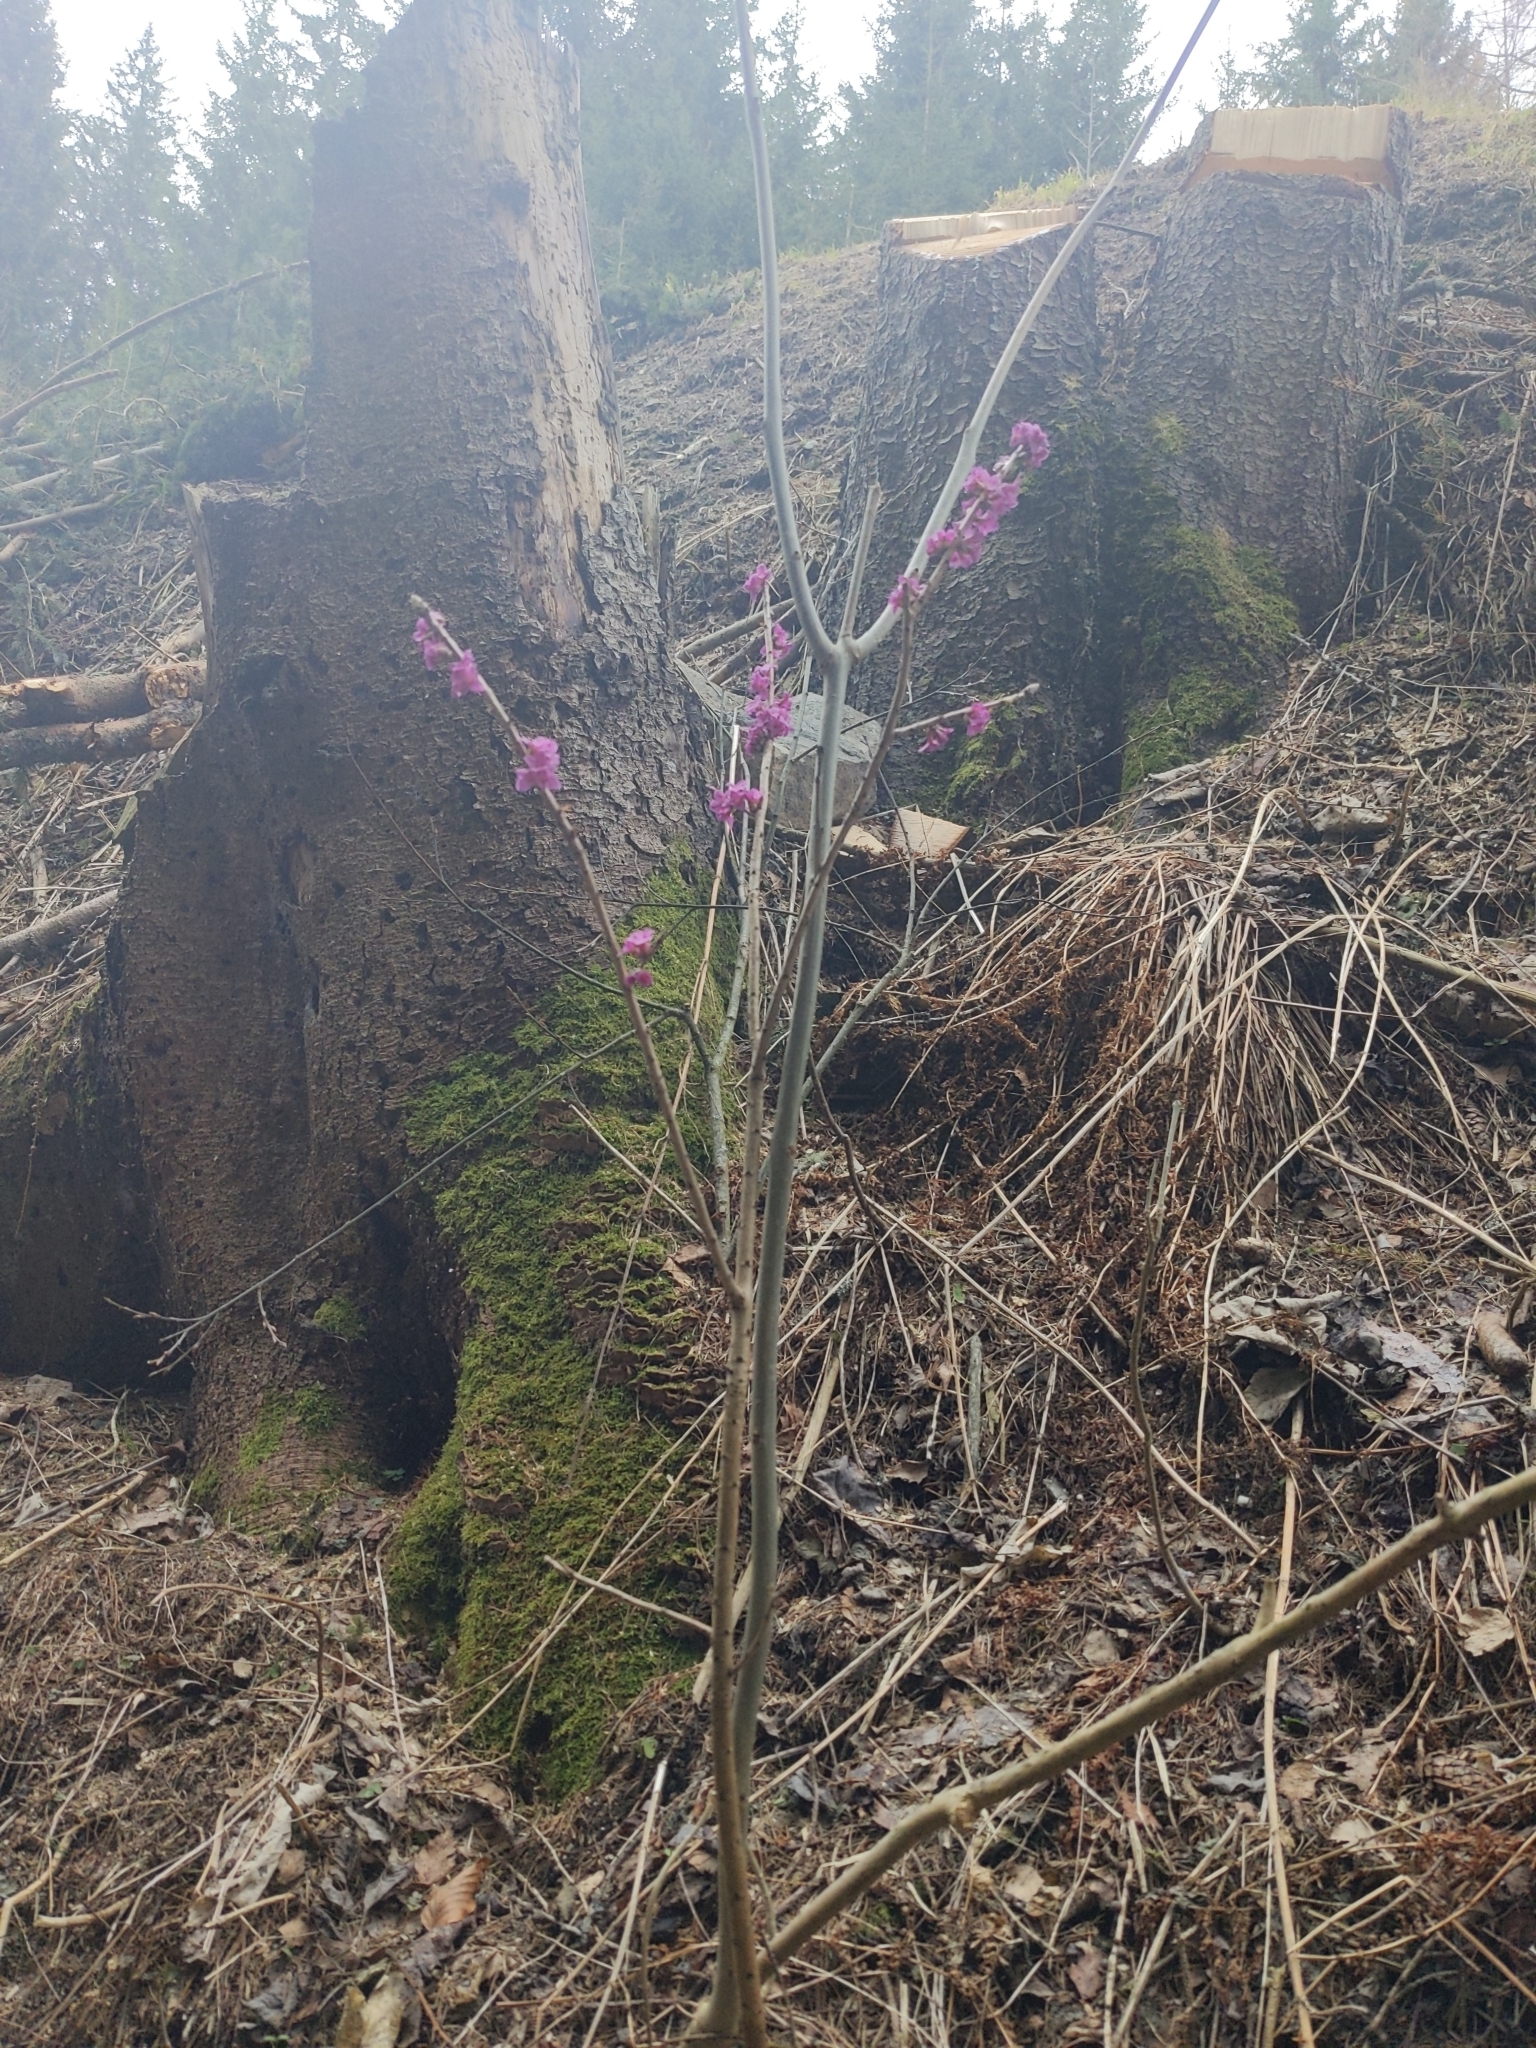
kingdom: Plantae
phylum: Tracheophyta
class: Magnoliopsida
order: Malvales
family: Thymelaeaceae
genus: Daphne
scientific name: Daphne mezereum
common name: Mezereon
